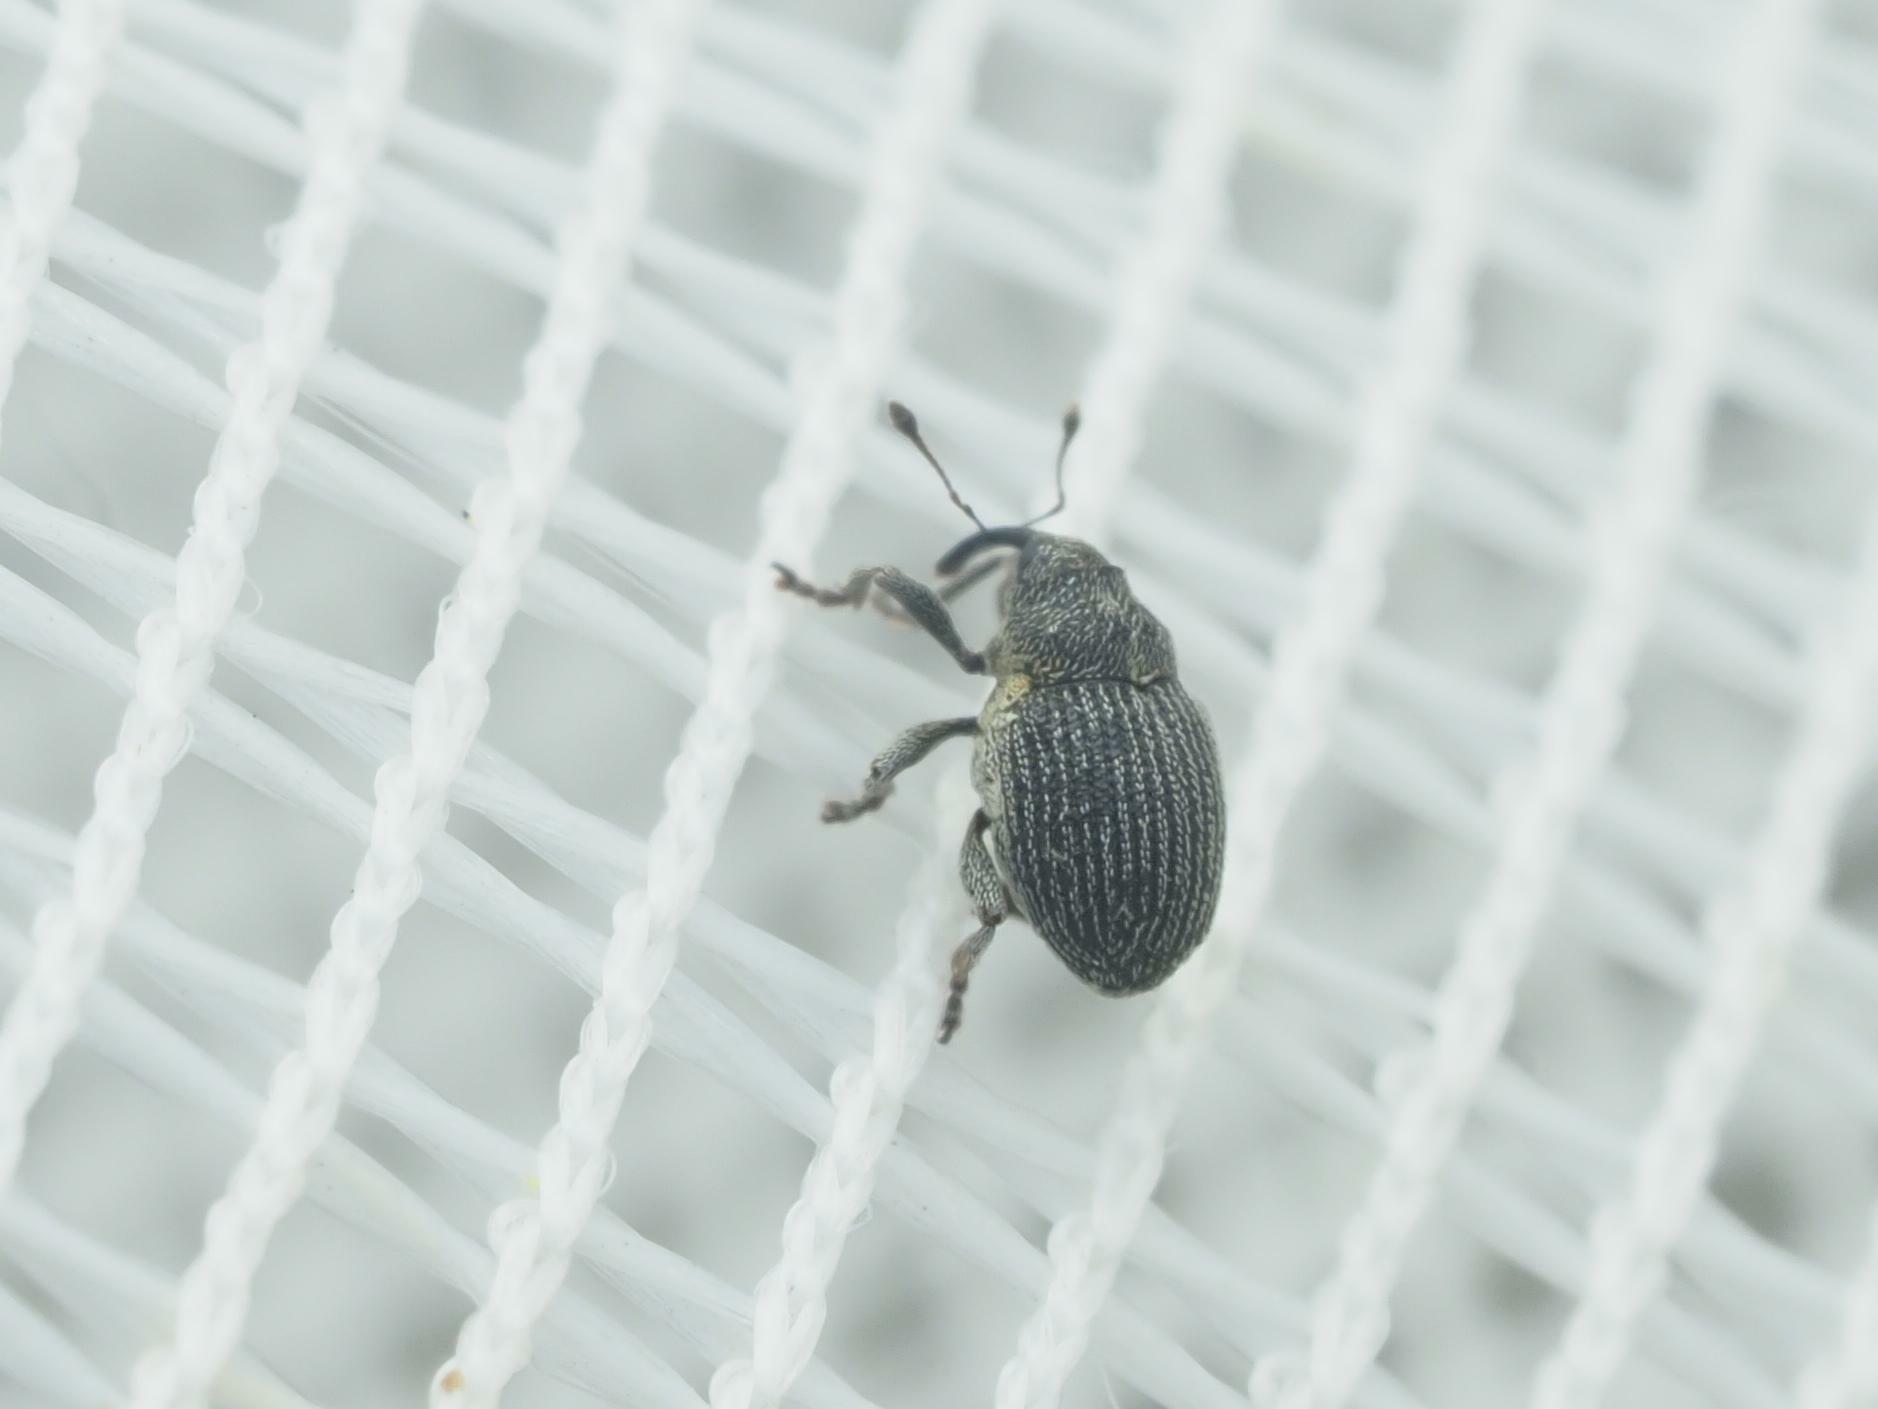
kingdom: Animalia
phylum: Arthropoda
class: Insecta
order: Coleoptera
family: Curculionidae
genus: Ceutorhynchus
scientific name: Ceutorhynchus constrictus
